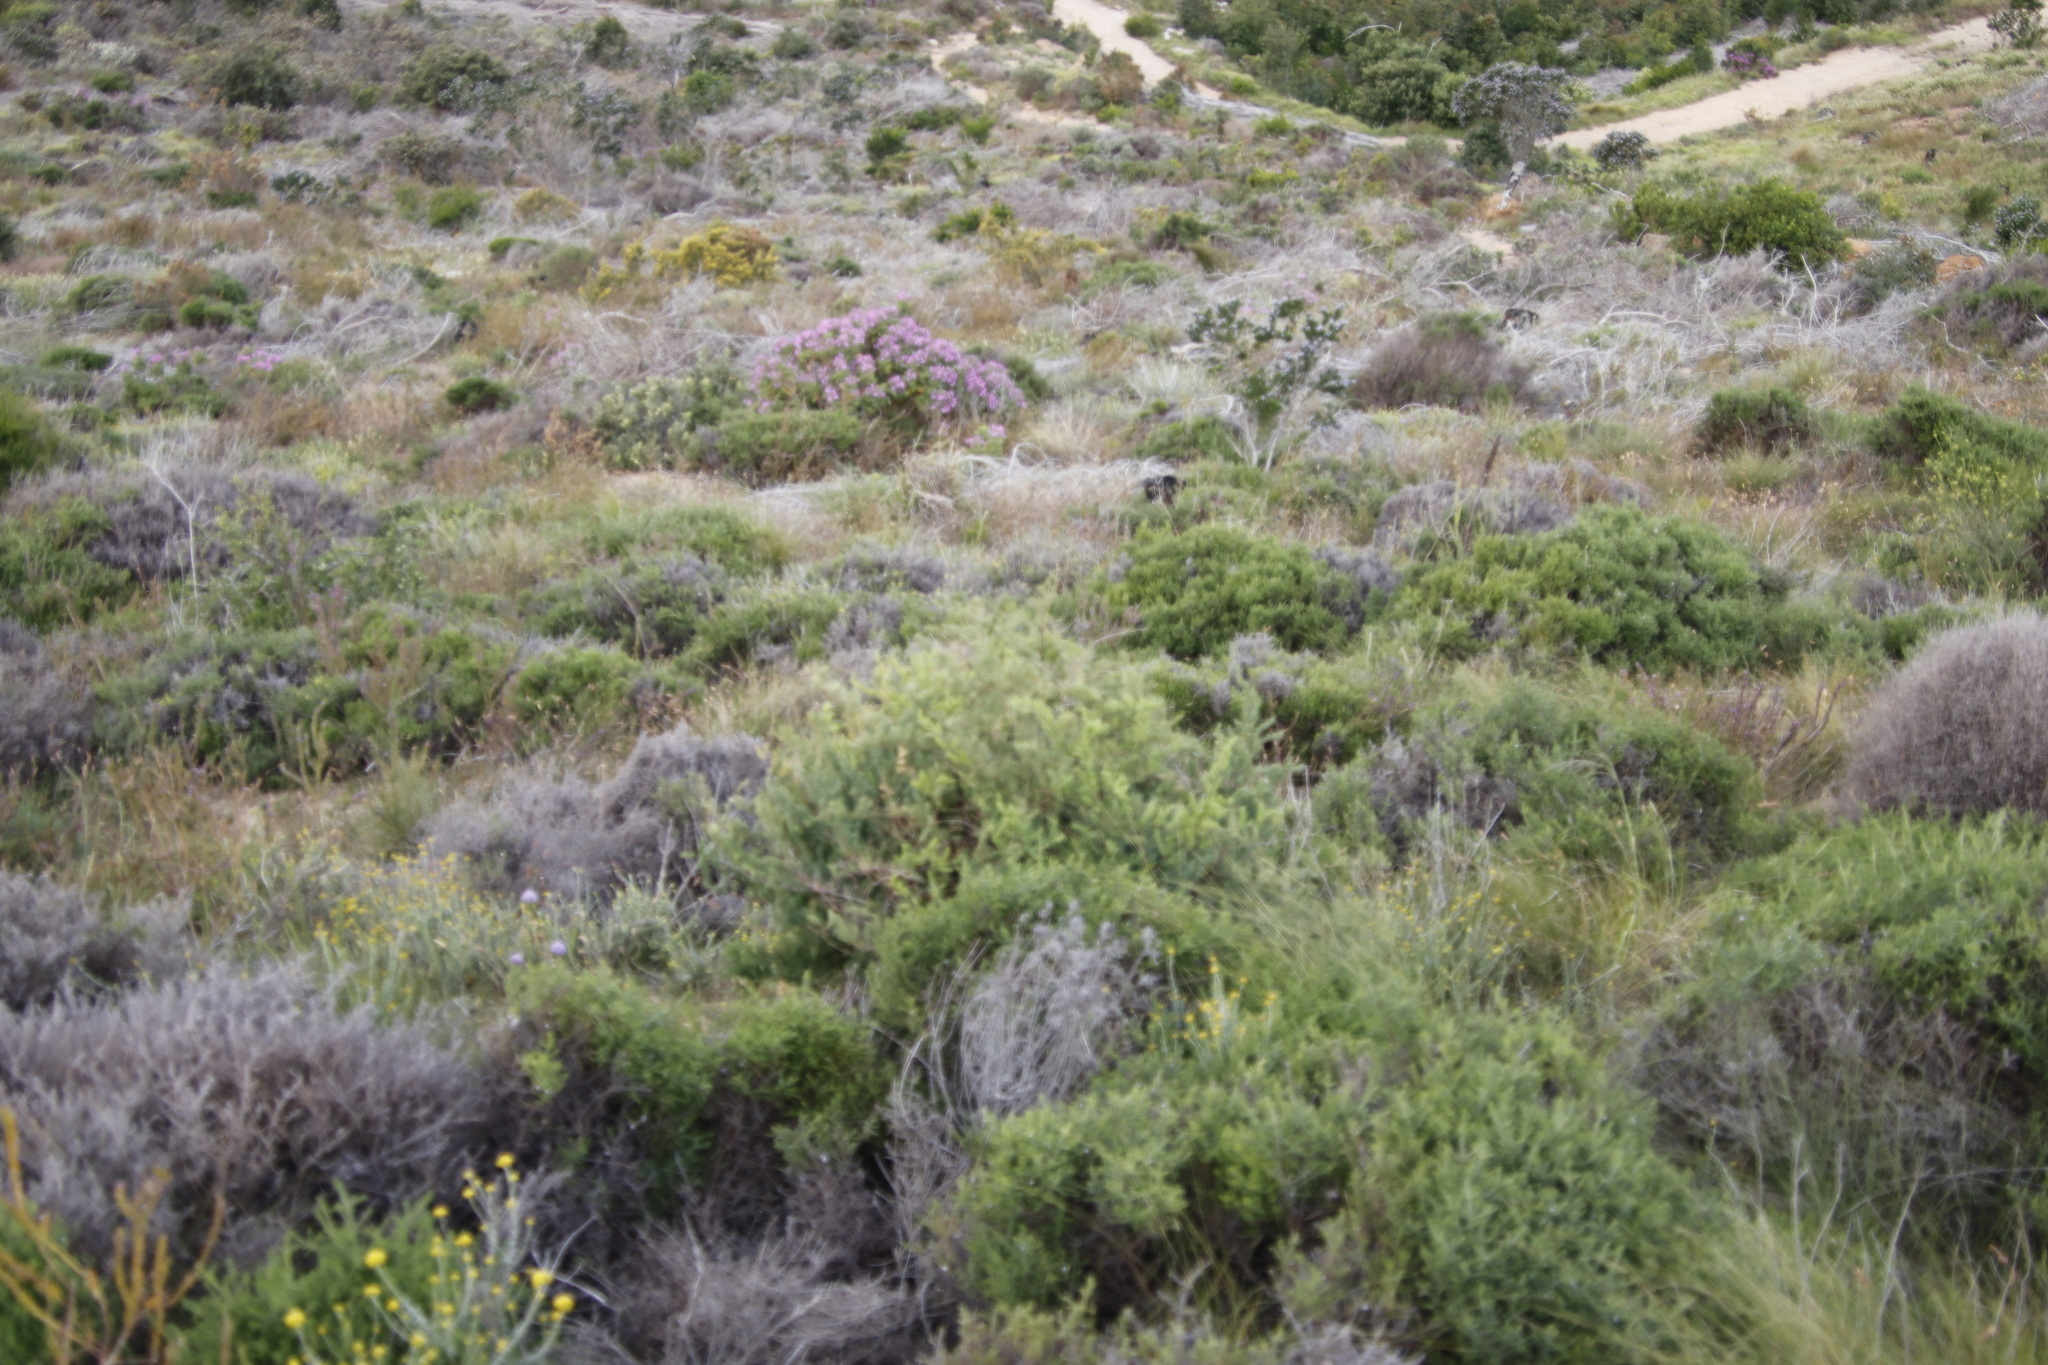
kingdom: Plantae
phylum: Tracheophyta
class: Liliopsida
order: Asparagales
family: Asparagaceae
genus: Asparagus
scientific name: Asparagus rubicundus
